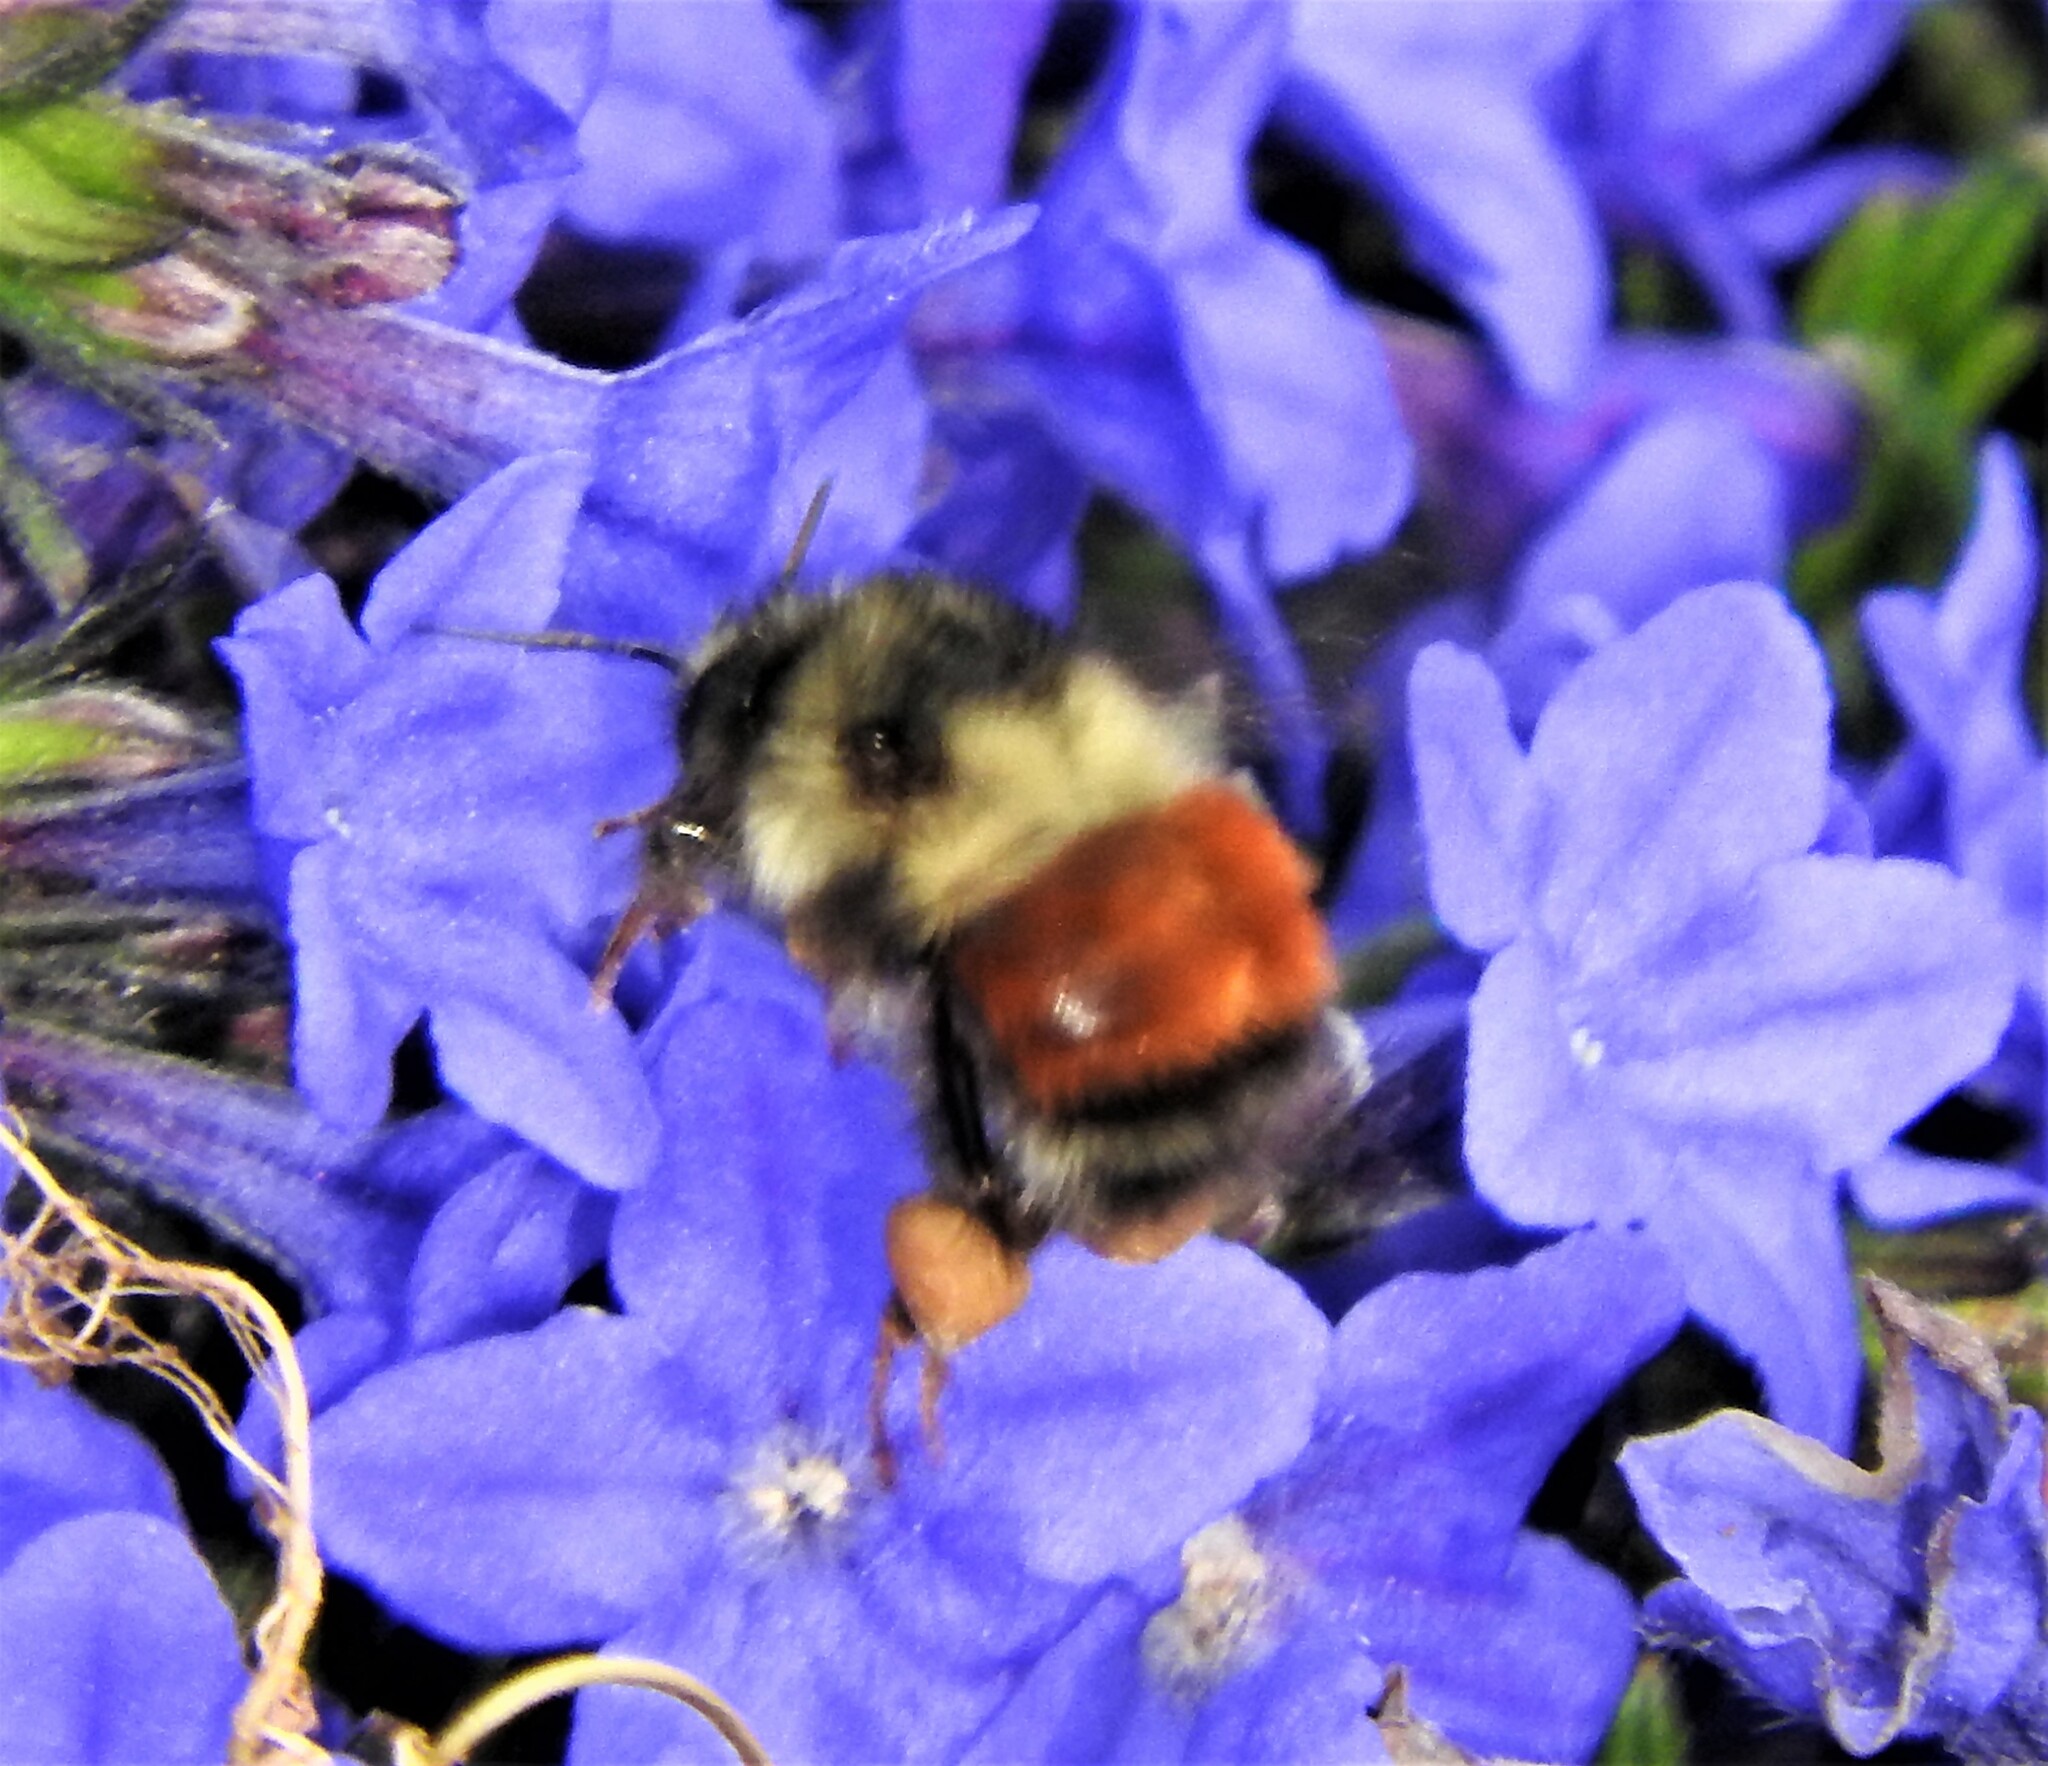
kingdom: Animalia
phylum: Arthropoda
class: Insecta
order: Hymenoptera
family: Apidae
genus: Bombus
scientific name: Bombus melanopygus
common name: Black tail bumble bee
